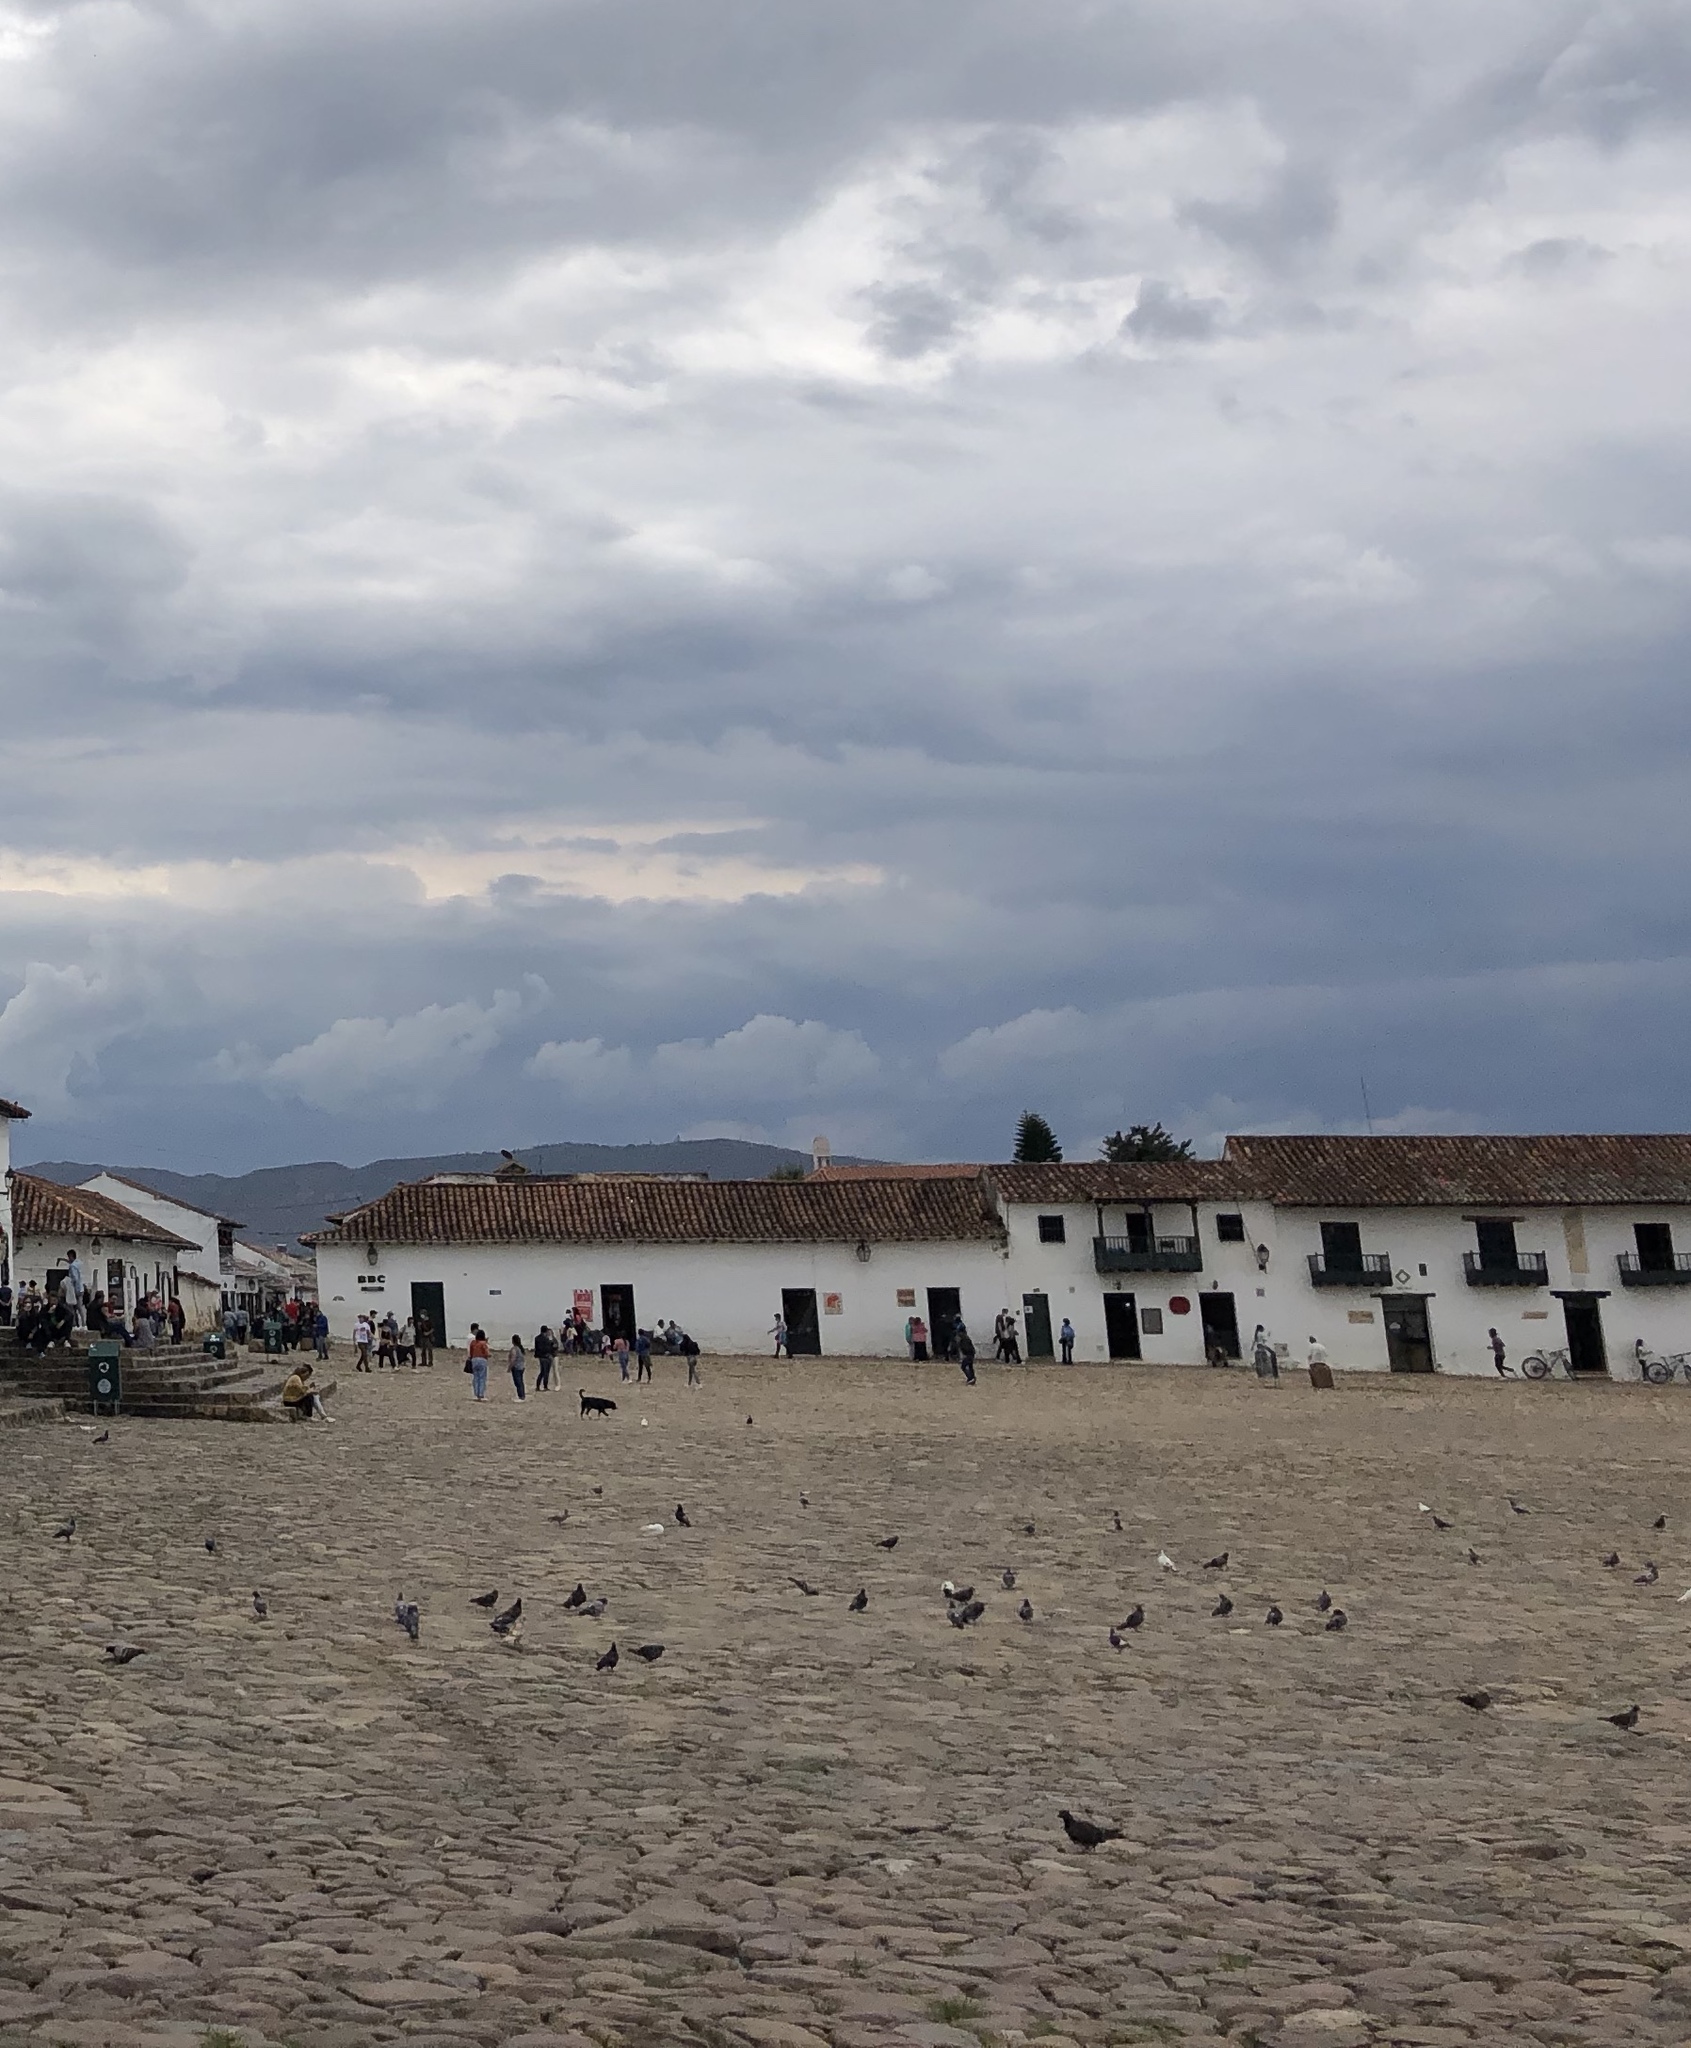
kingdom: Animalia
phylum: Chordata
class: Aves
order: Columbiformes
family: Columbidae
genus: Columba
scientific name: Columba livia
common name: Rock pigeon
